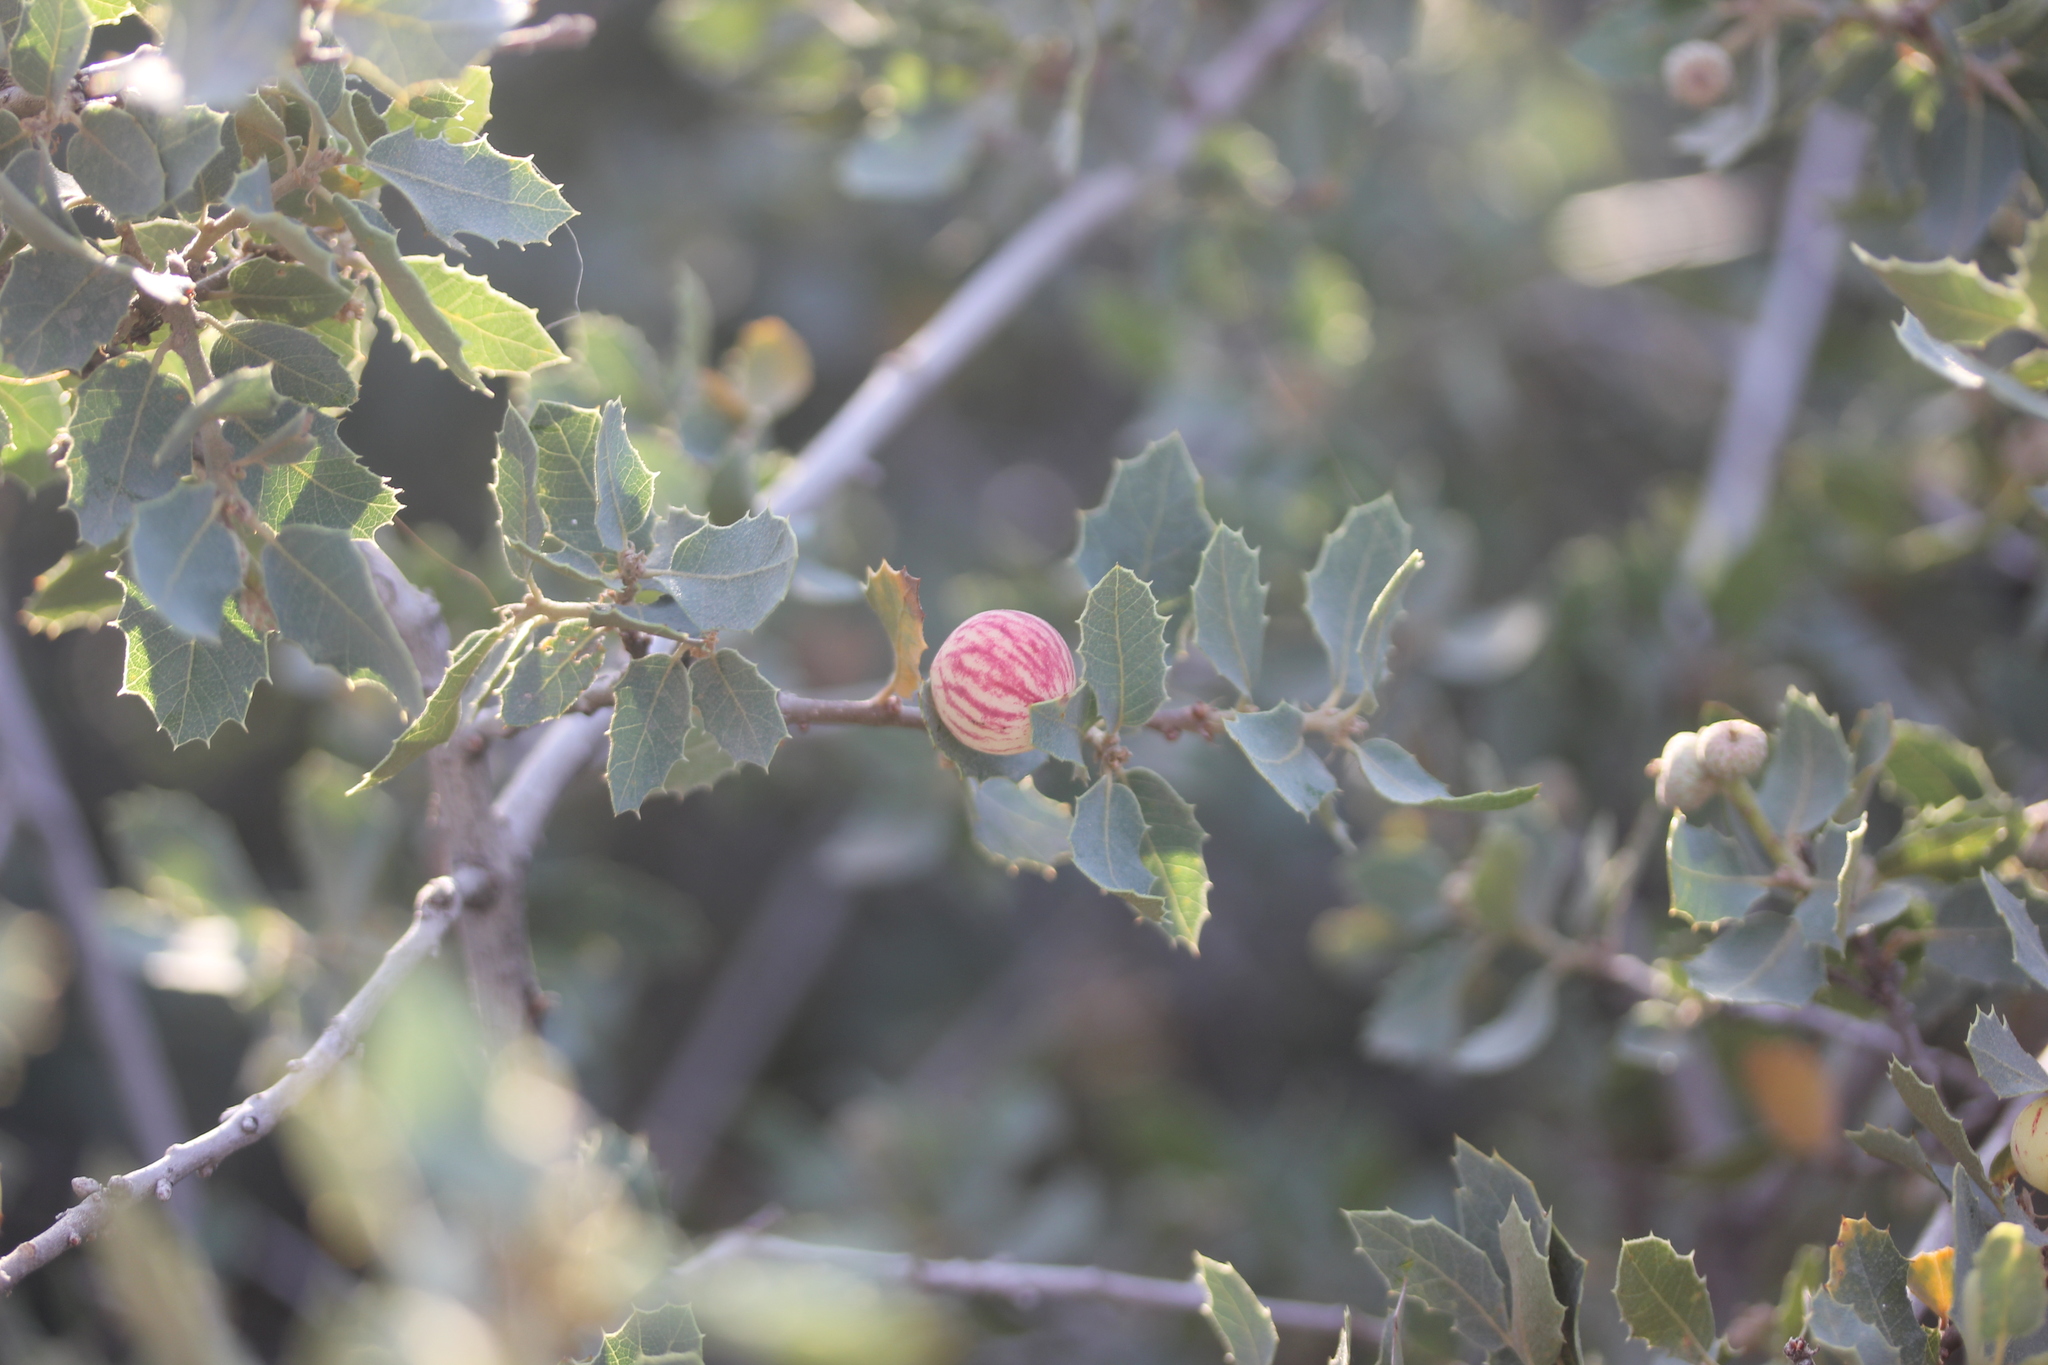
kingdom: Animalia
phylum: Arthropoda
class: Insecta
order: Hymenoptera
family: Cynipidae
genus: Atrusca
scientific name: Atrusca
